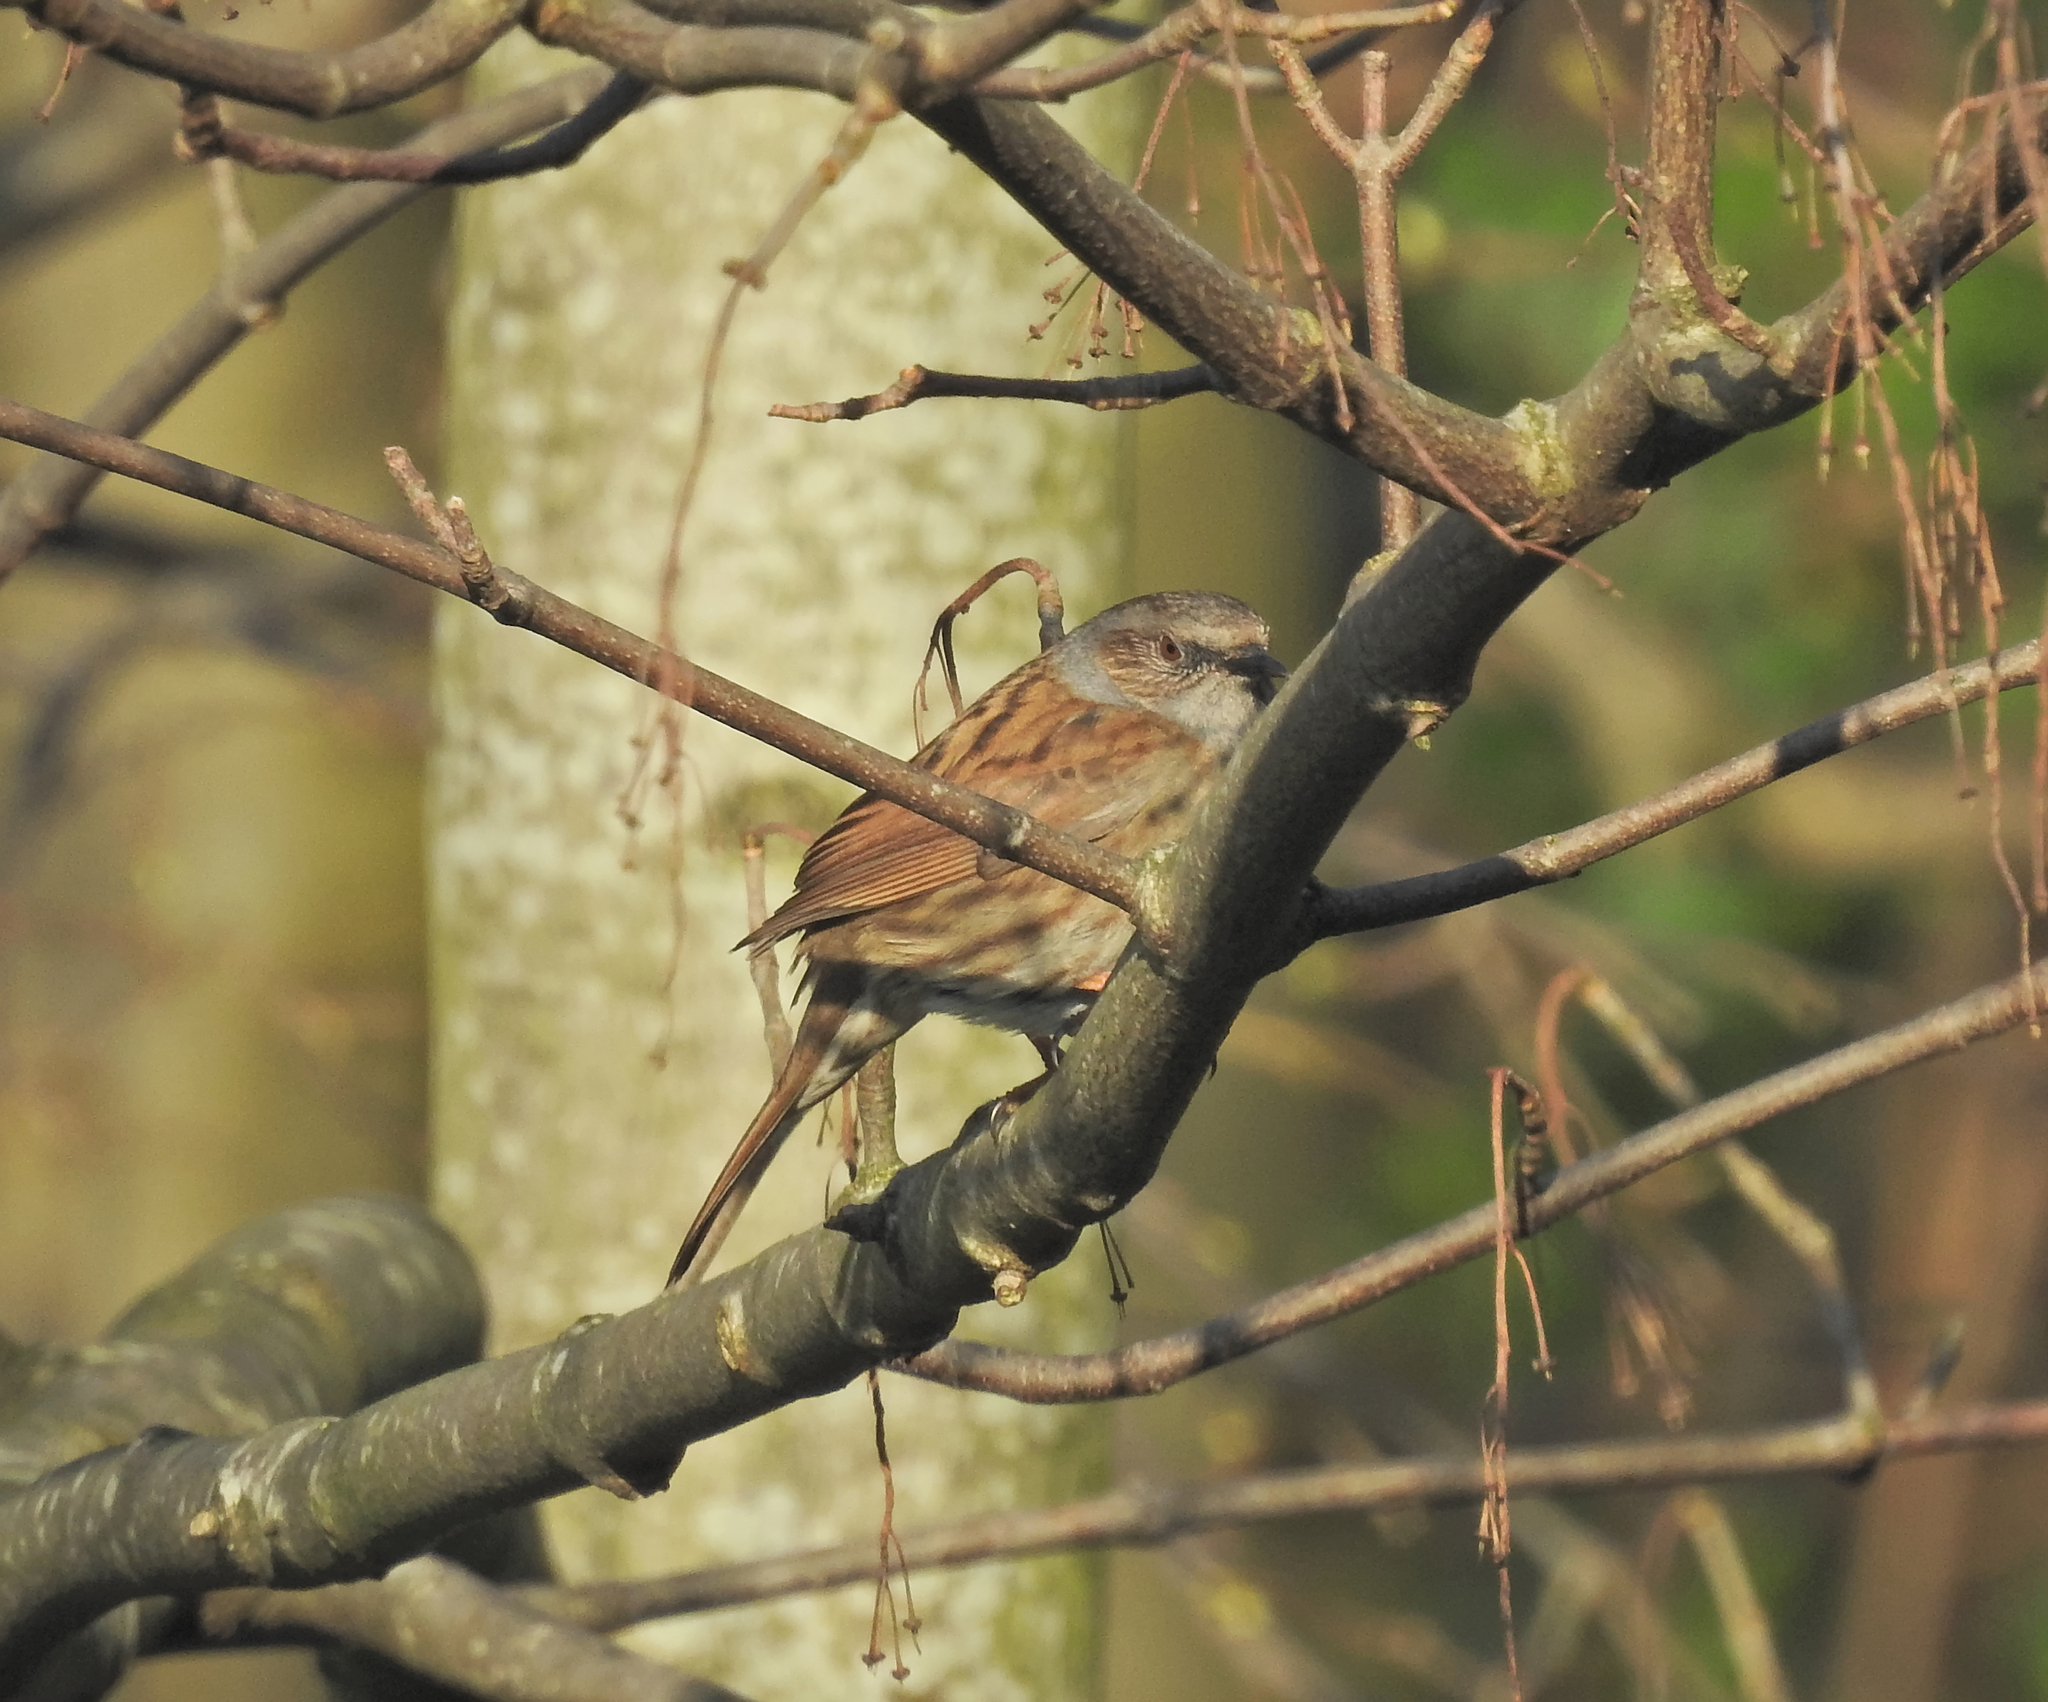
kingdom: Animalia
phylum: Chordata
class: Aves
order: Passeriformes
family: Prunellidae
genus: Prunella
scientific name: Prunella modularis
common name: Dunnock
